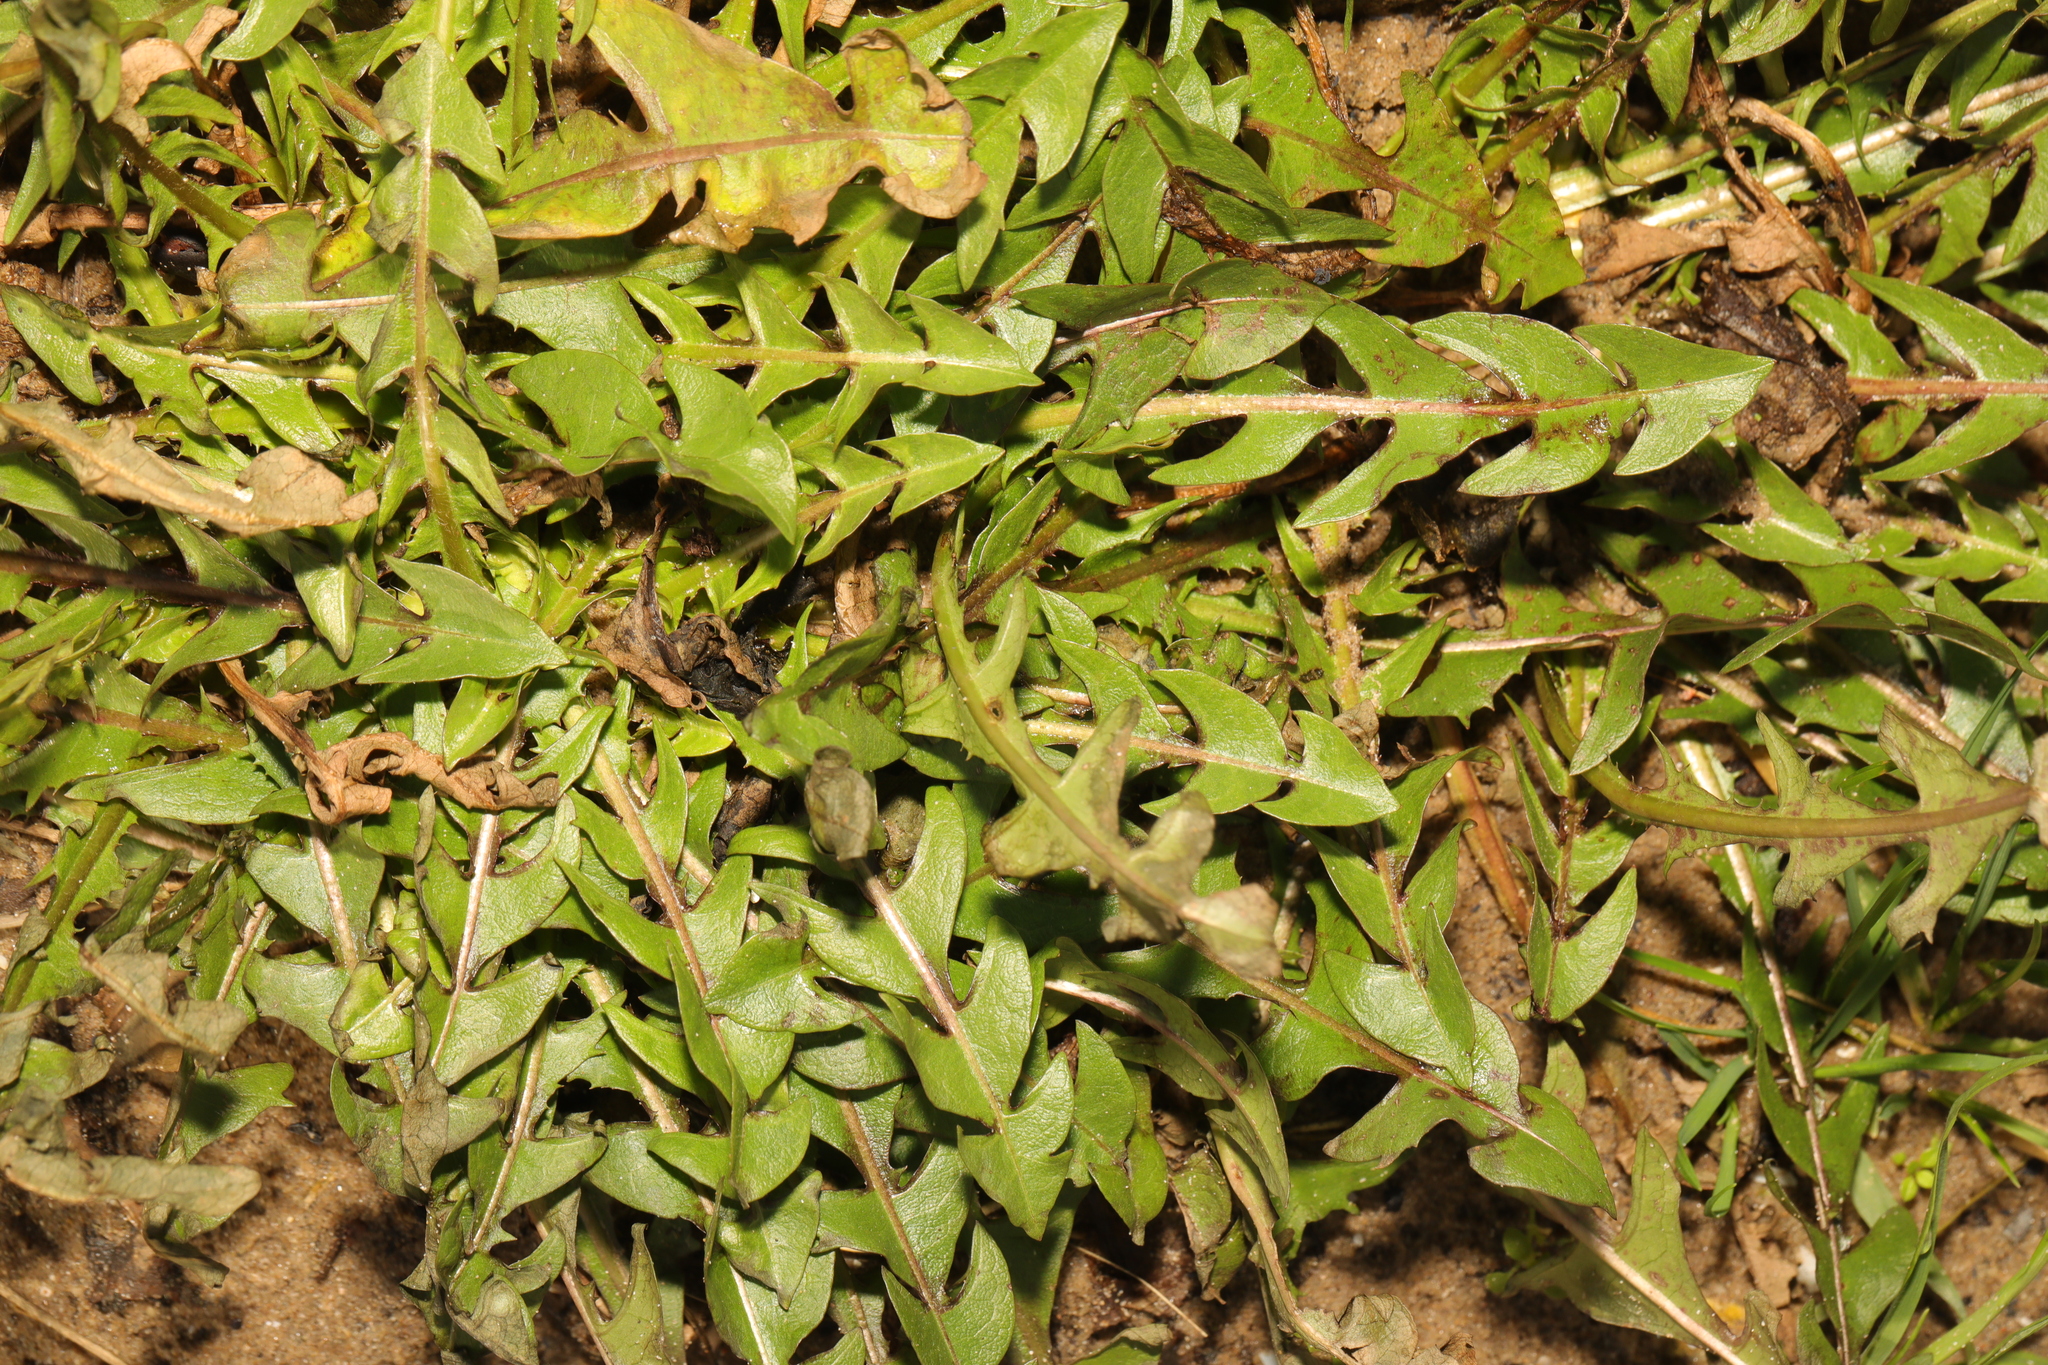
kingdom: Plantae
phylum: Tracheophyta
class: Magnoliopsida
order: Asterales
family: Asteraceae
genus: Taraxacum
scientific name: Taraxacum officinale
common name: Common dandelion
